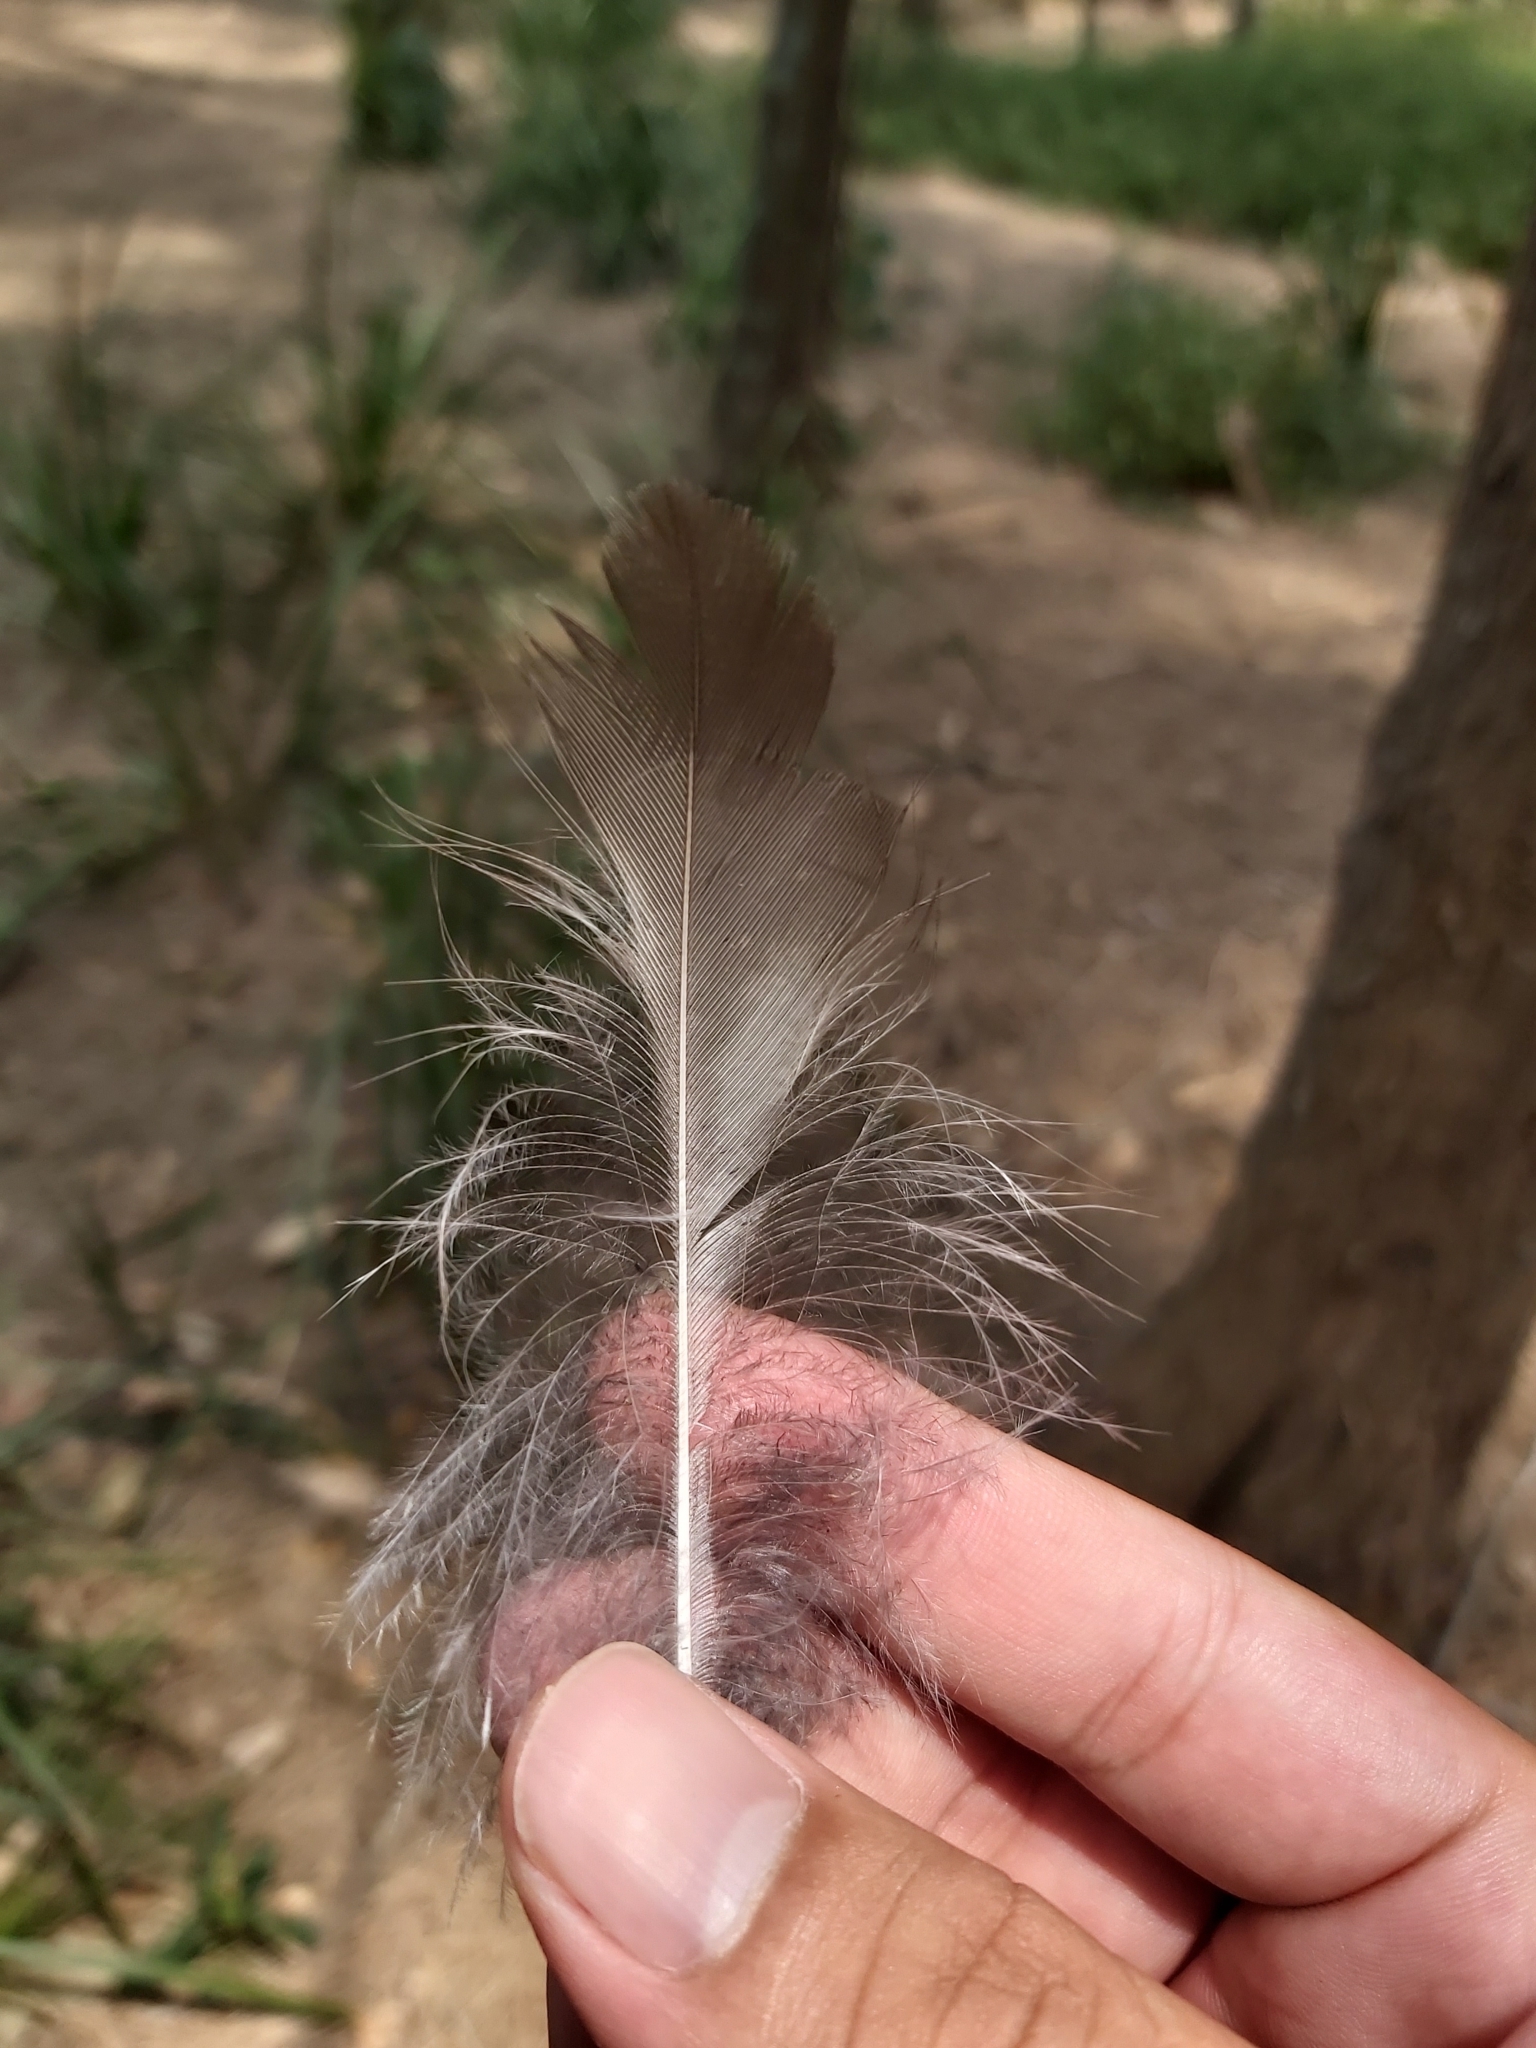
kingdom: Animalia
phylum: Chordata
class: Aves
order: Coraciiformes
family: Alcedinidae
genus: Dacelo
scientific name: Dacelo novaeguineae
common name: Laughing kookaburra
